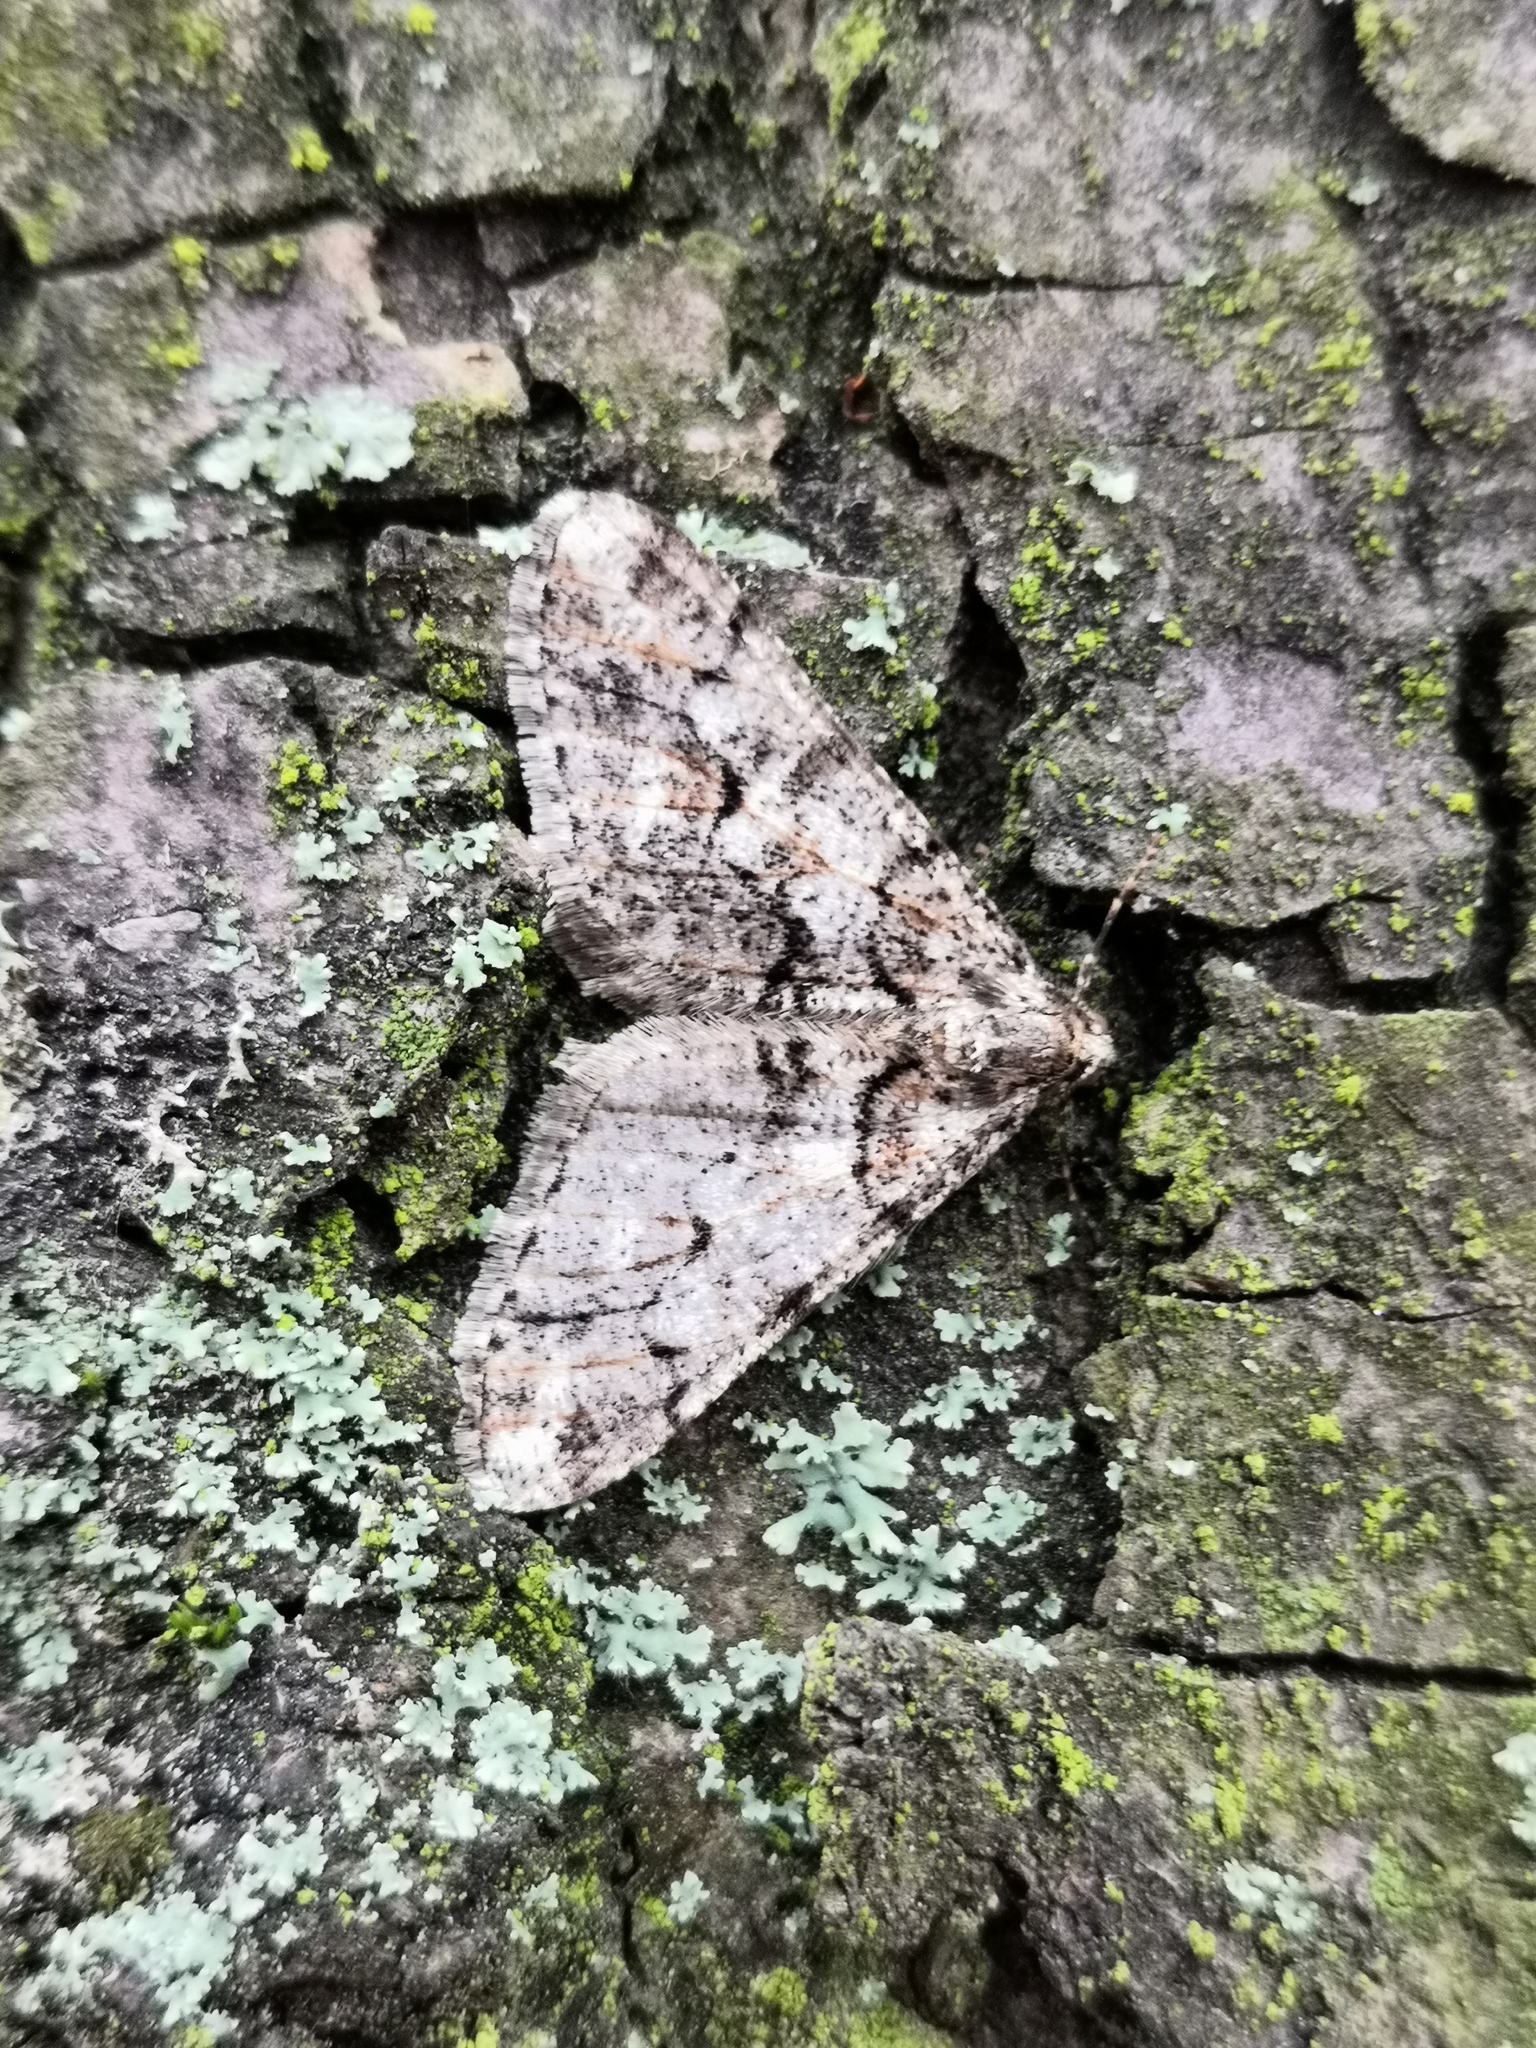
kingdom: Animalia
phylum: Arthropoda
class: Insecta
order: Lepidoptera
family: Geometridae
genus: Agriopis
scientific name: Agriopis leucophaearia
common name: Spring usher
